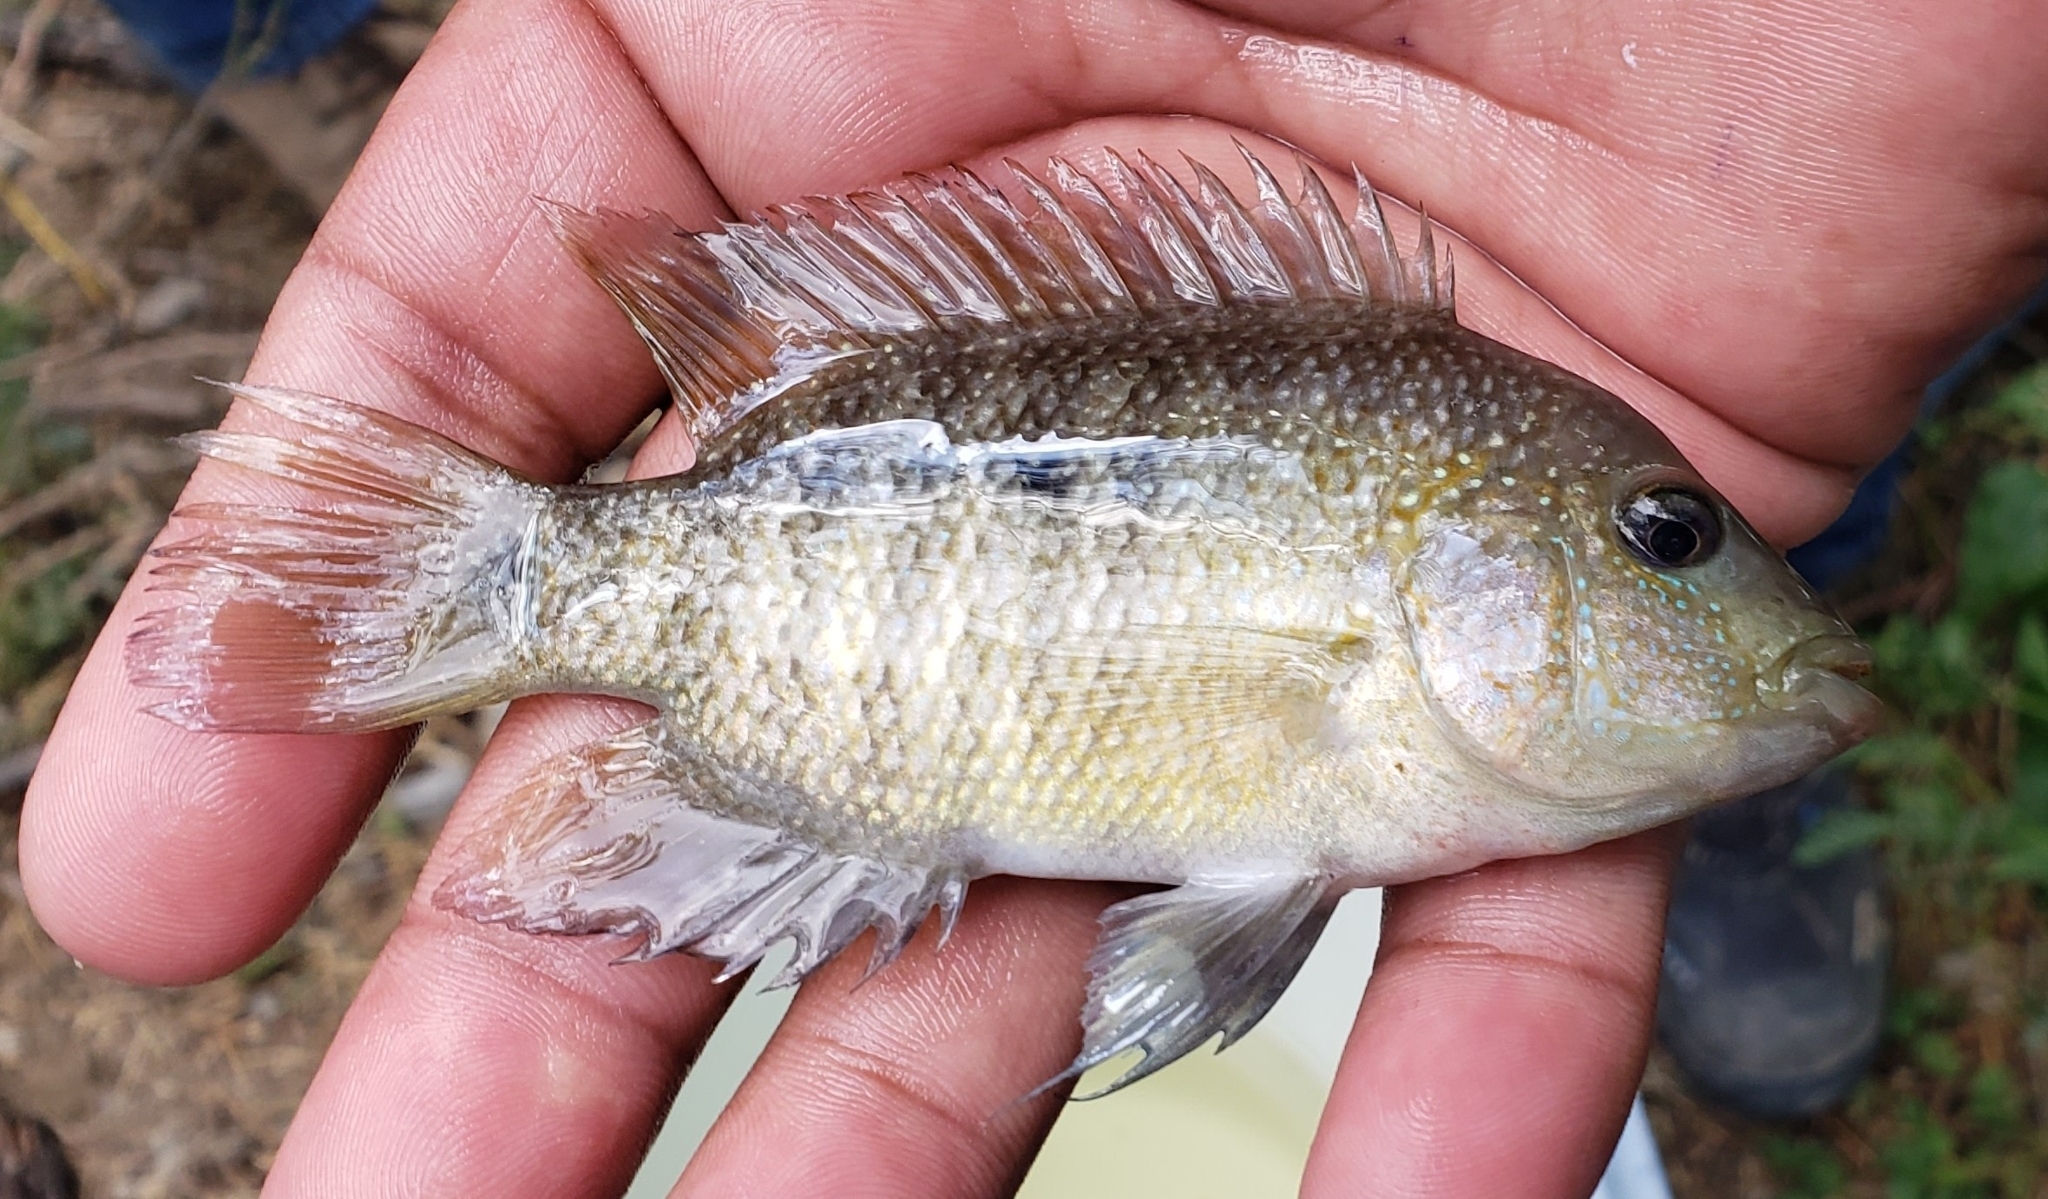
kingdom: Animalia
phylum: Chordata
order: Perciformes
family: Cichlidae
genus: Herichthys
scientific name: Herichthys cyanoguttatus
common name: Rio grande cichlid
